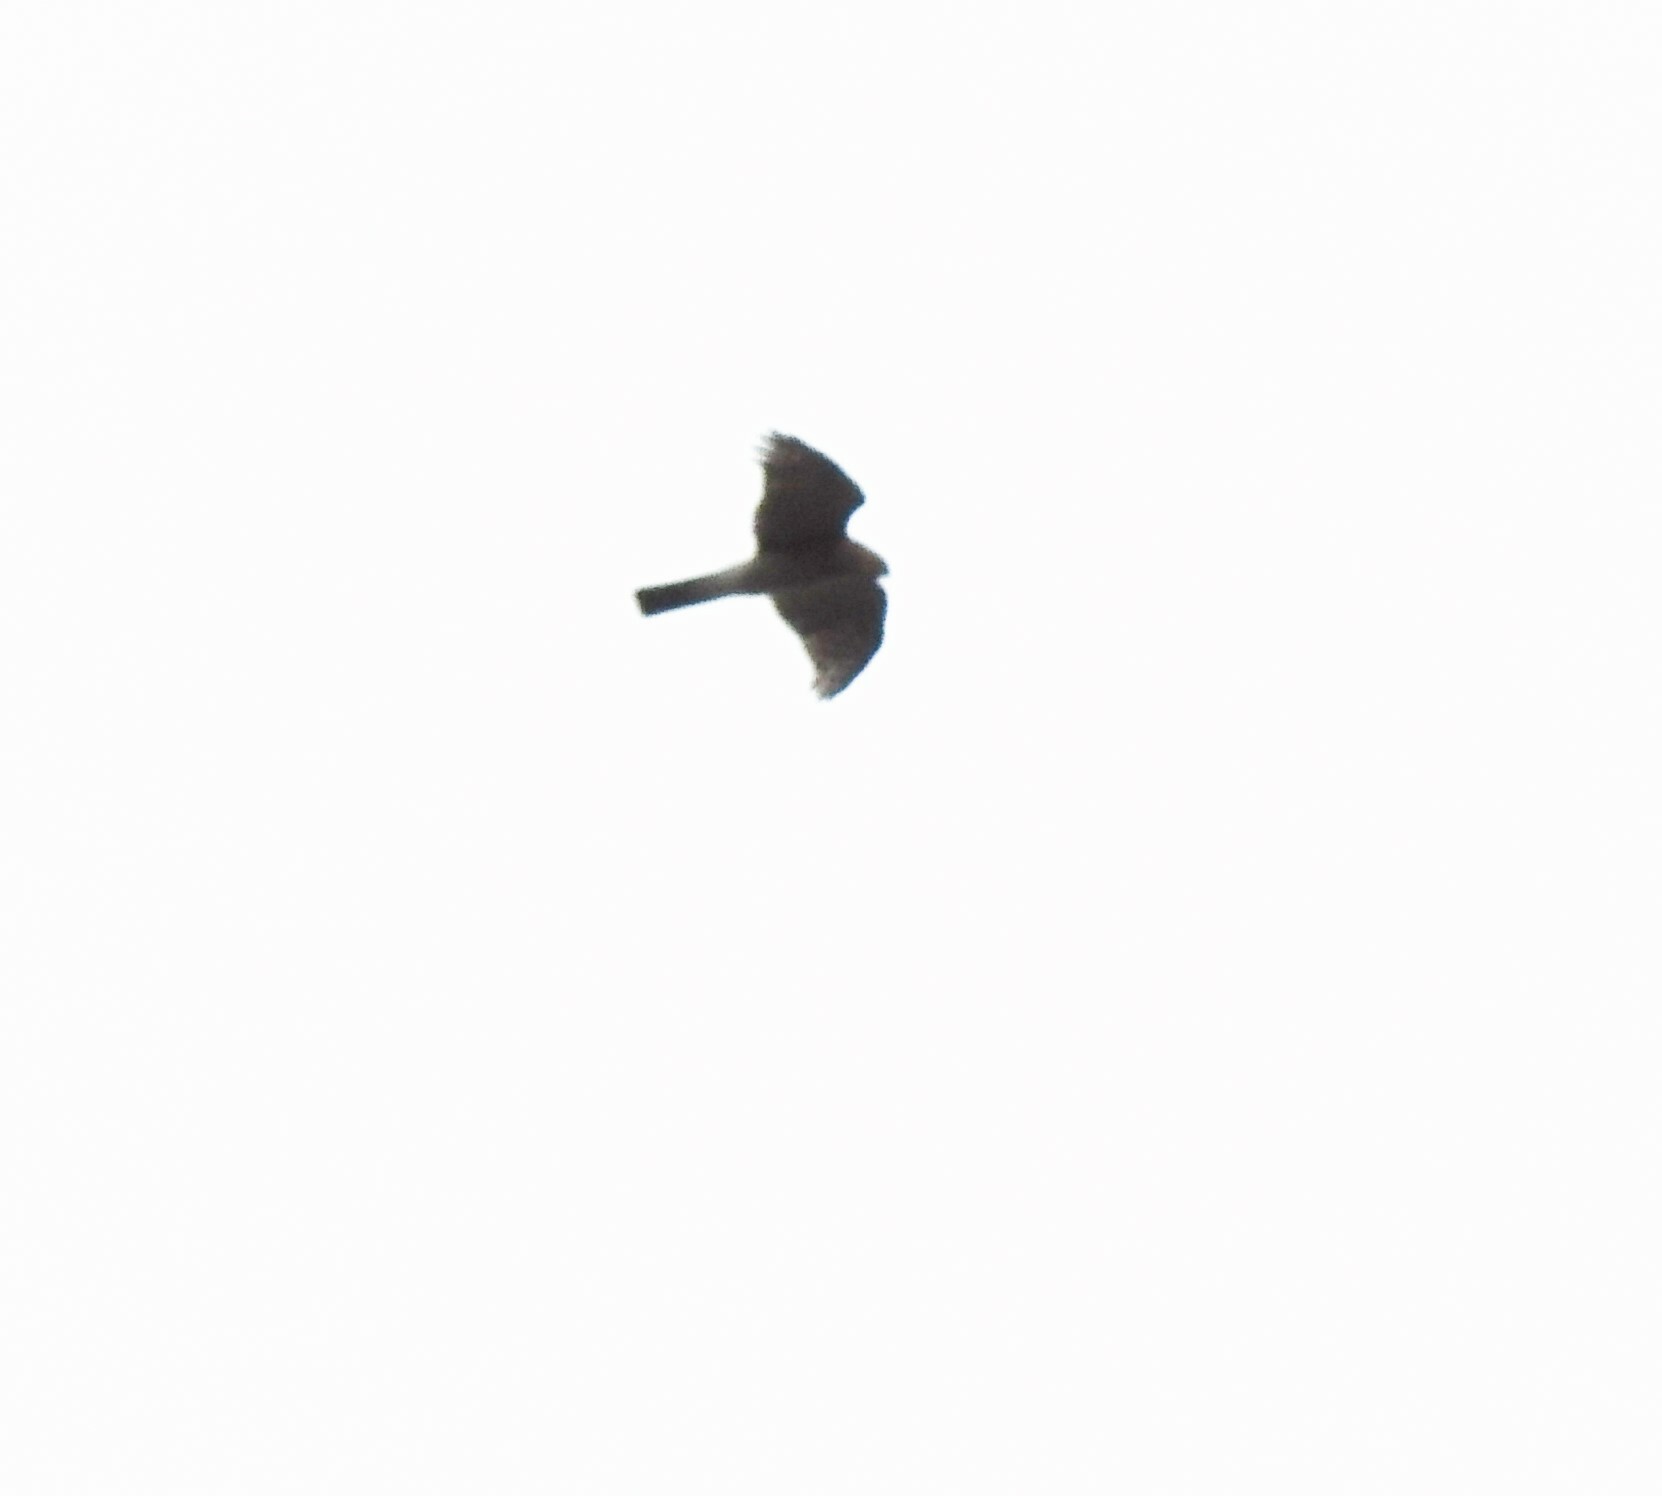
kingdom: Animalia
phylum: Chordata
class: Aves
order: Accipitriformes
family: Accipitridae
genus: Accipiter
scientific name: Accipiter nisus
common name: Eurasian sparrowhawk
